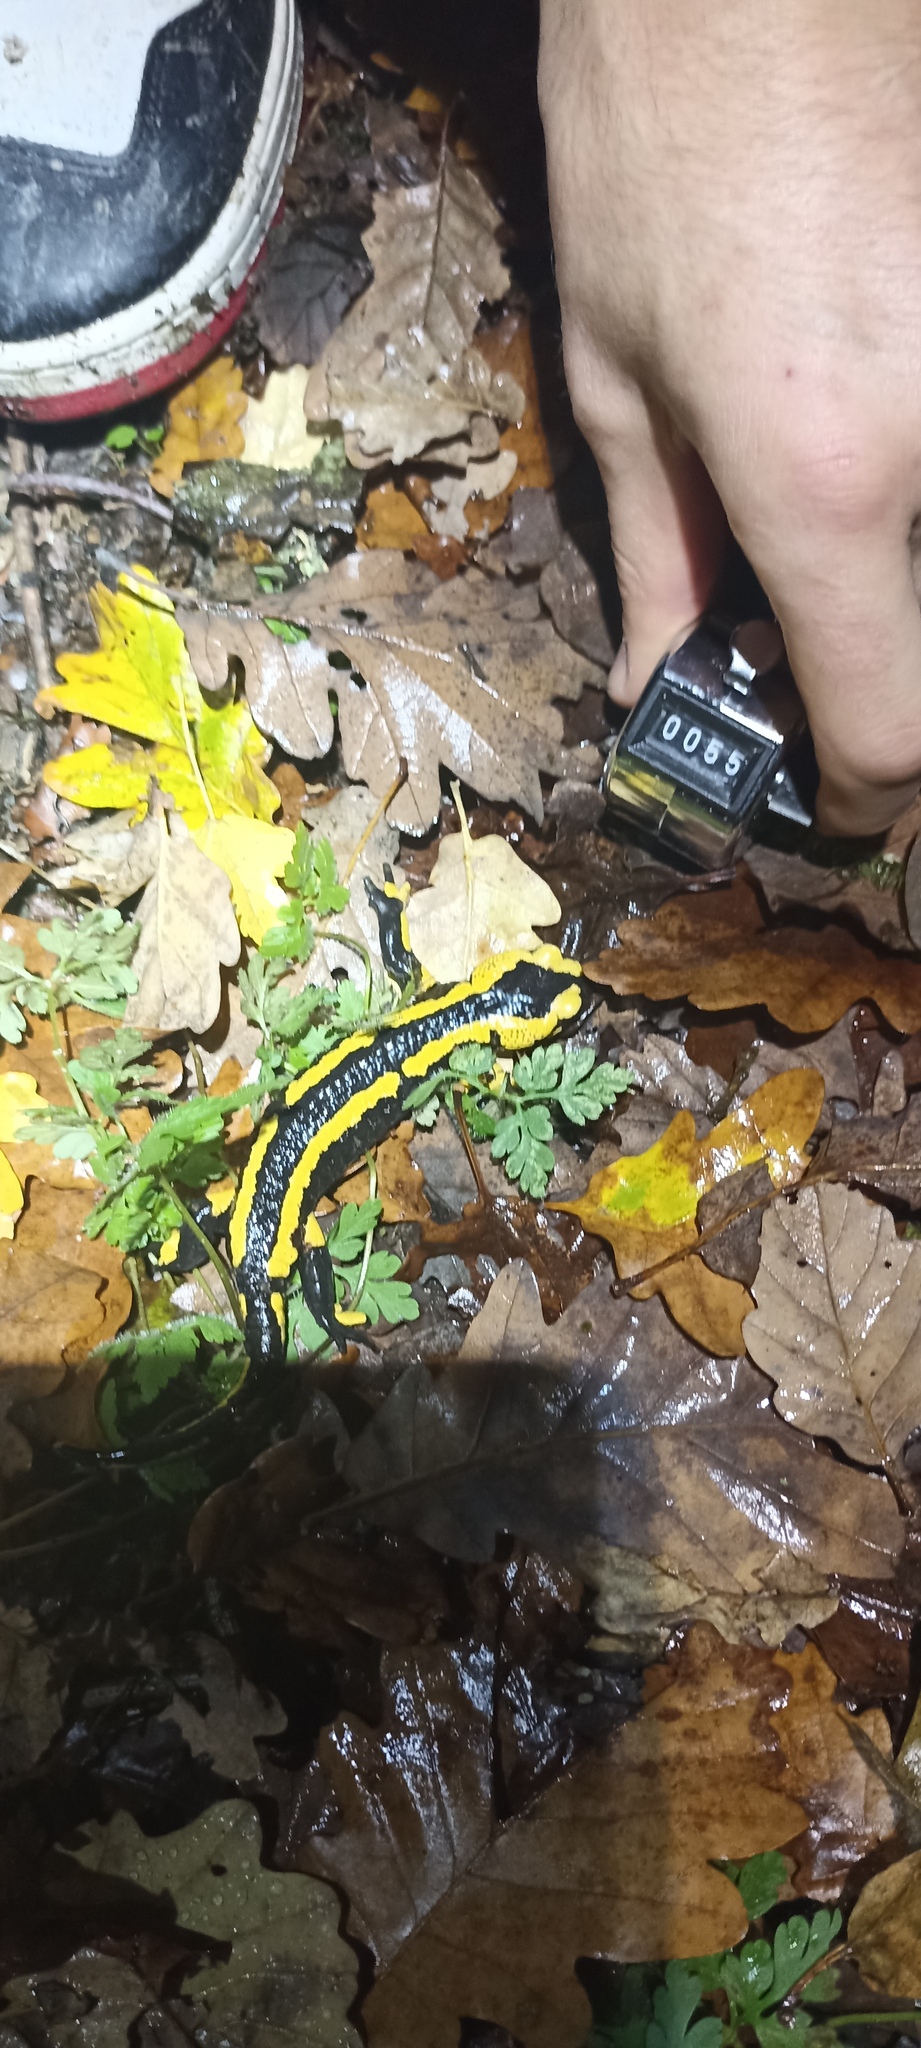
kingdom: Animalia
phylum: Chordata
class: Amphibia
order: Caudata
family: Salamandridae
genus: Salamandra
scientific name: Salamandra salamandra
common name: Fire salamander
